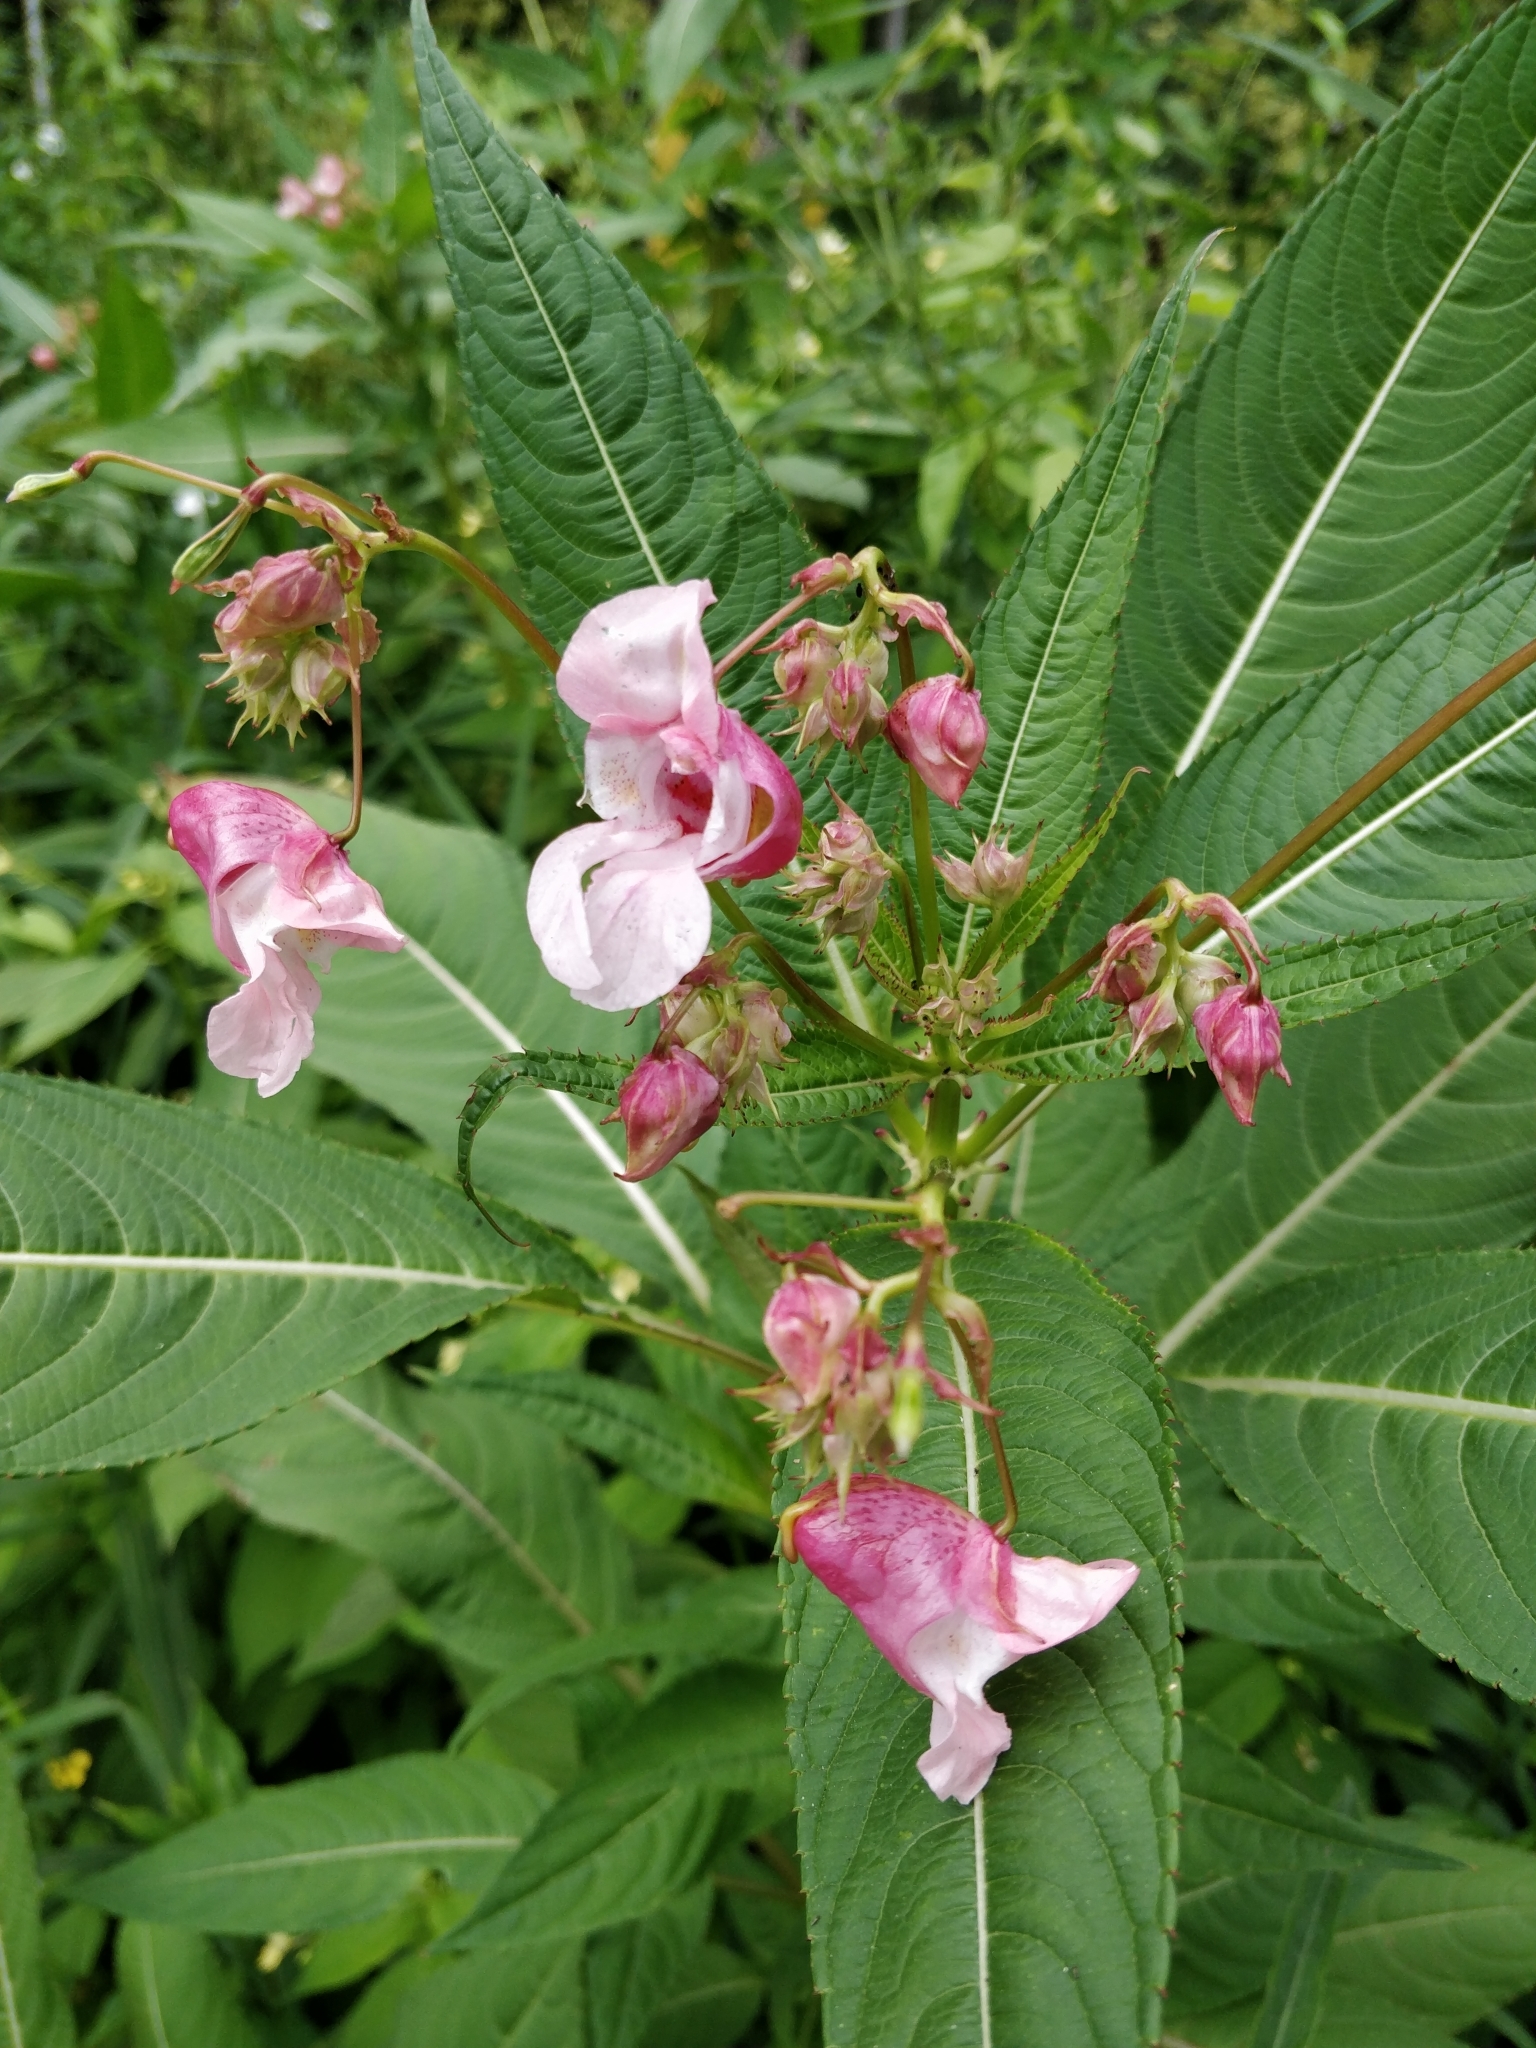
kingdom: Plantae
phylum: Tracheophyta
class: Magnoliopsida
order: Ericales
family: Balsaminaceae
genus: Impatiens
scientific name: Impatiens glandulifera
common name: Himalayan balsam
